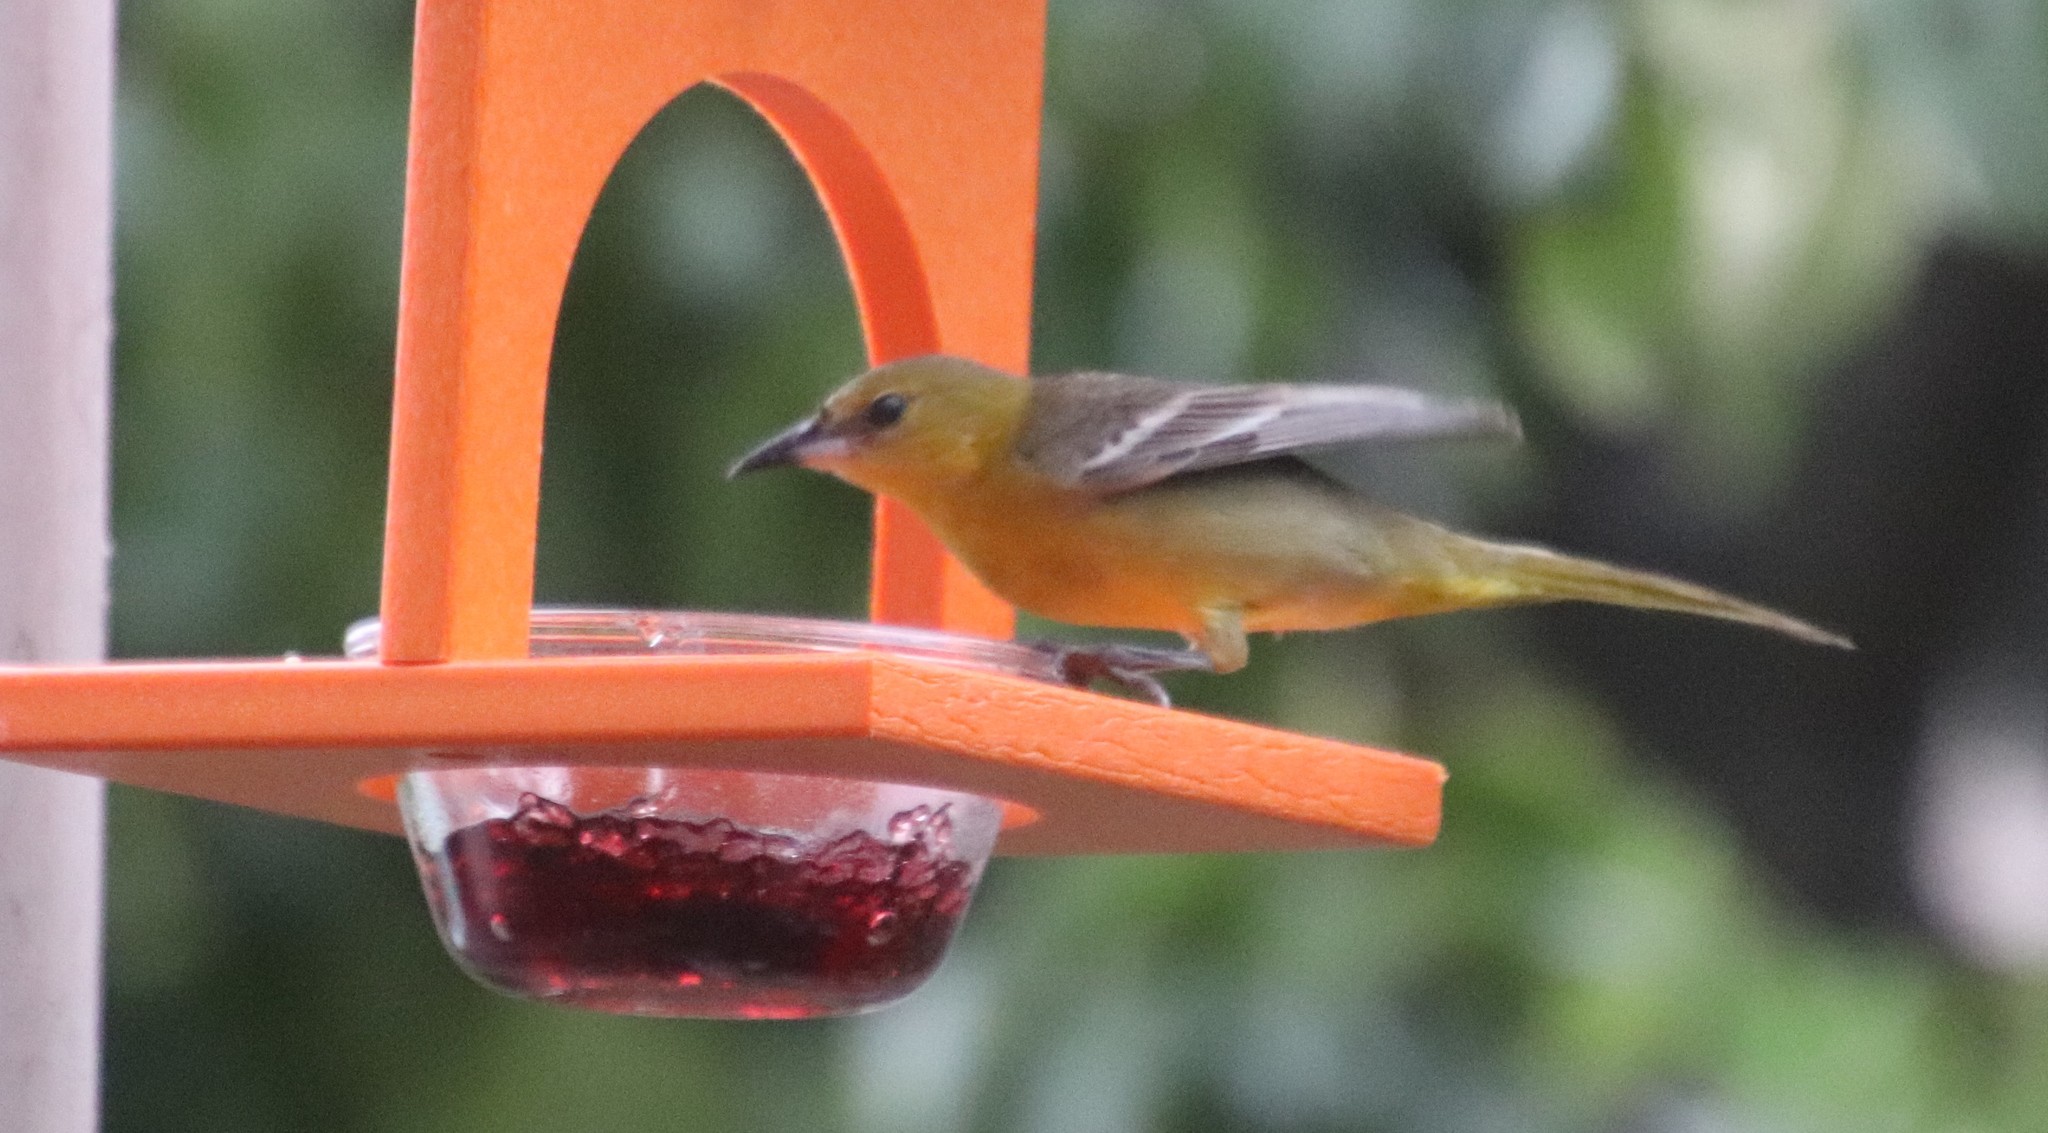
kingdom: Animalia
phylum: Chordata
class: Aves
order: Passeriformes
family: Icteridae
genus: Icterus
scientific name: Icterus cucullatus
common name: Hooded oriole
